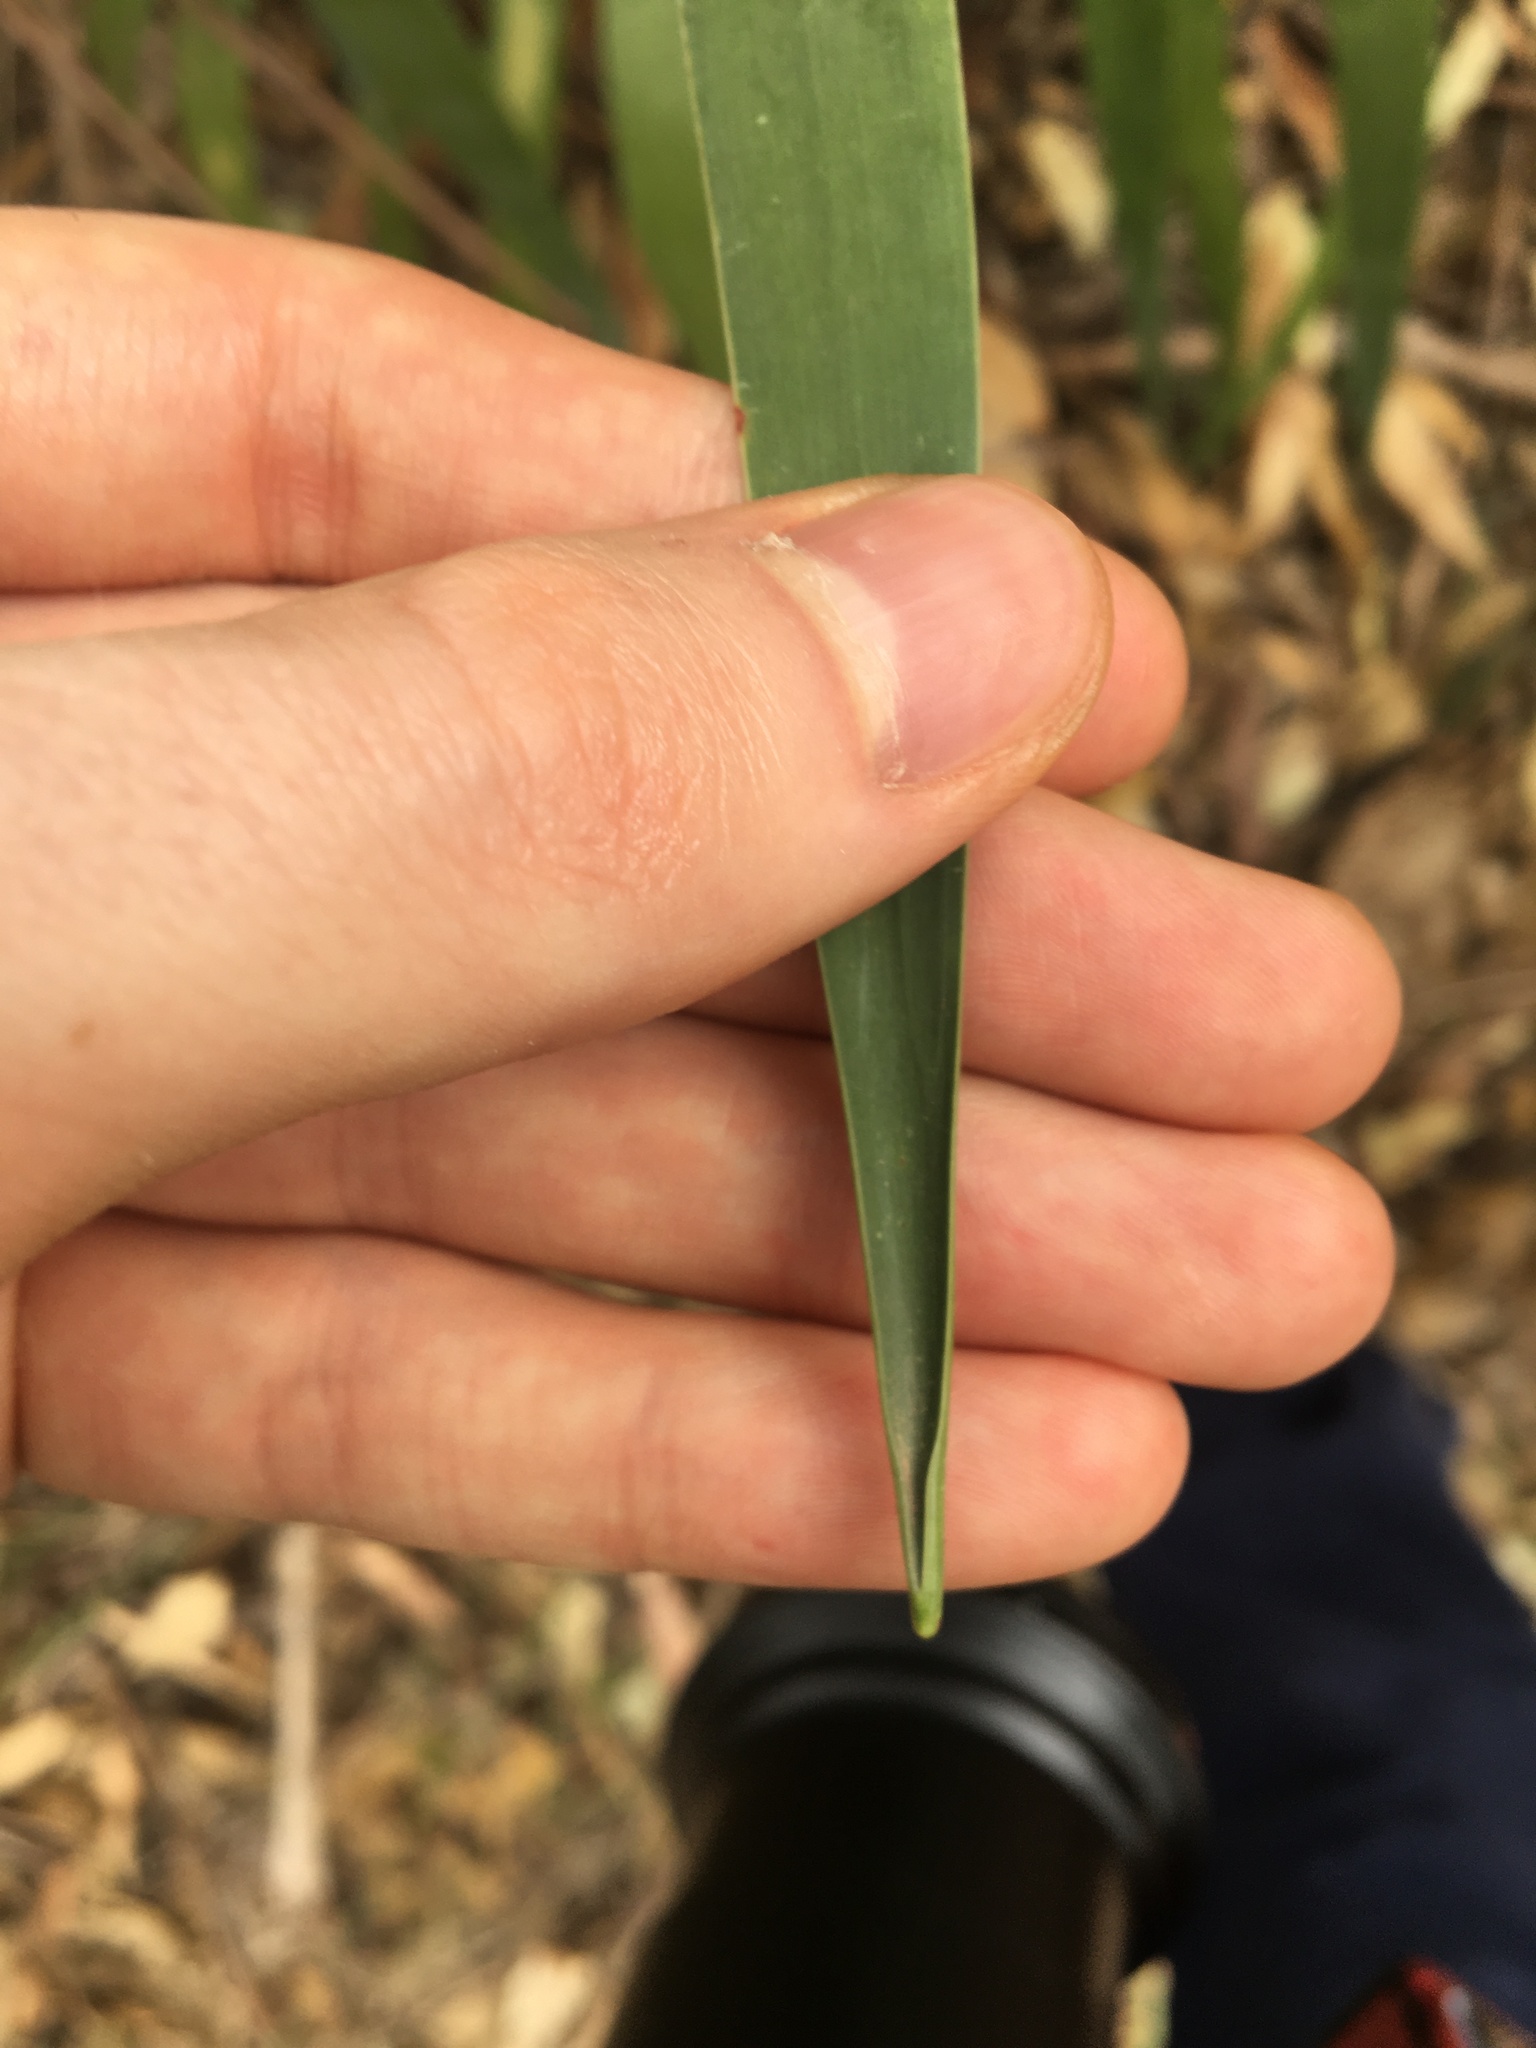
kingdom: Plantae
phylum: Tracheophyta
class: Liliopsida
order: Asparagales
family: Asparagaceae
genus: Dracaena
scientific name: Dracaena draco
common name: Canary island dragon tree
